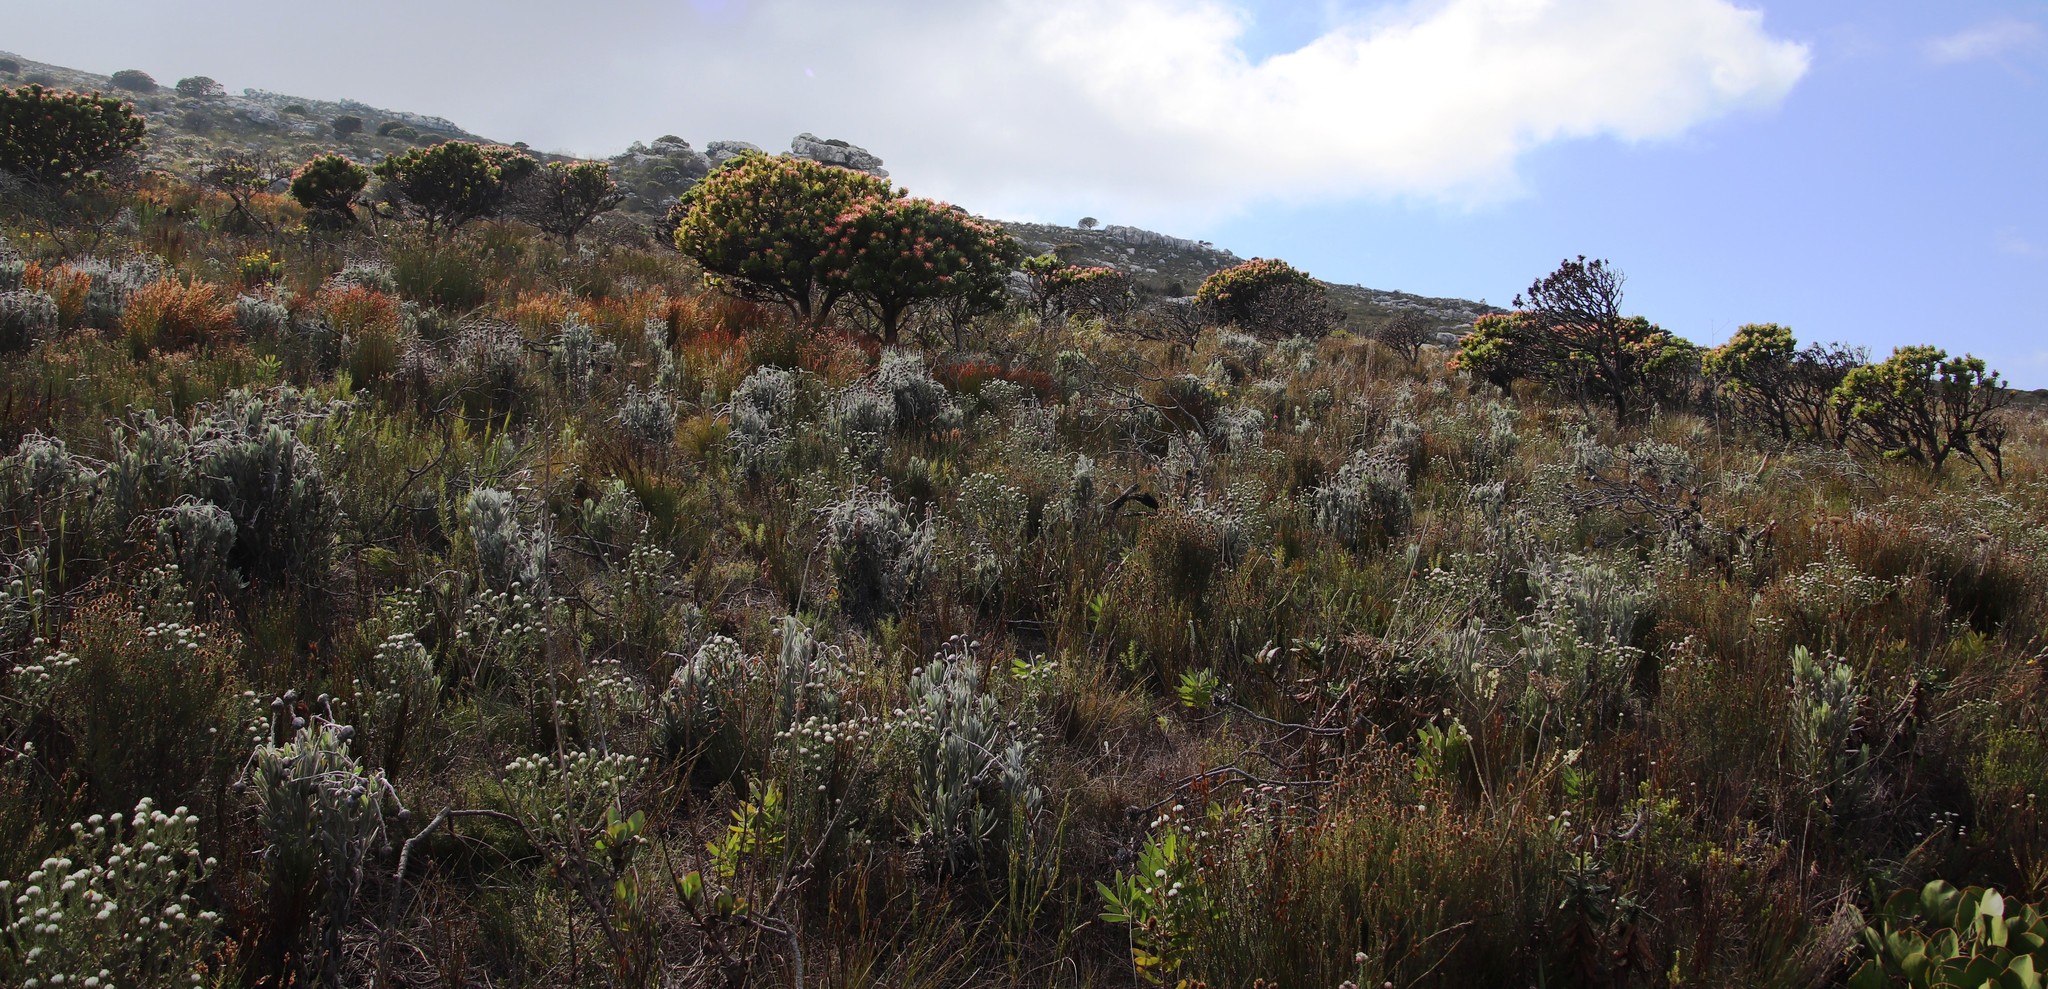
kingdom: Plantae
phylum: Tracheophyta
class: Magnoliopsida
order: Asterales
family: Asteraceae
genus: Syncarpha
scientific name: Syncarpha vestita
